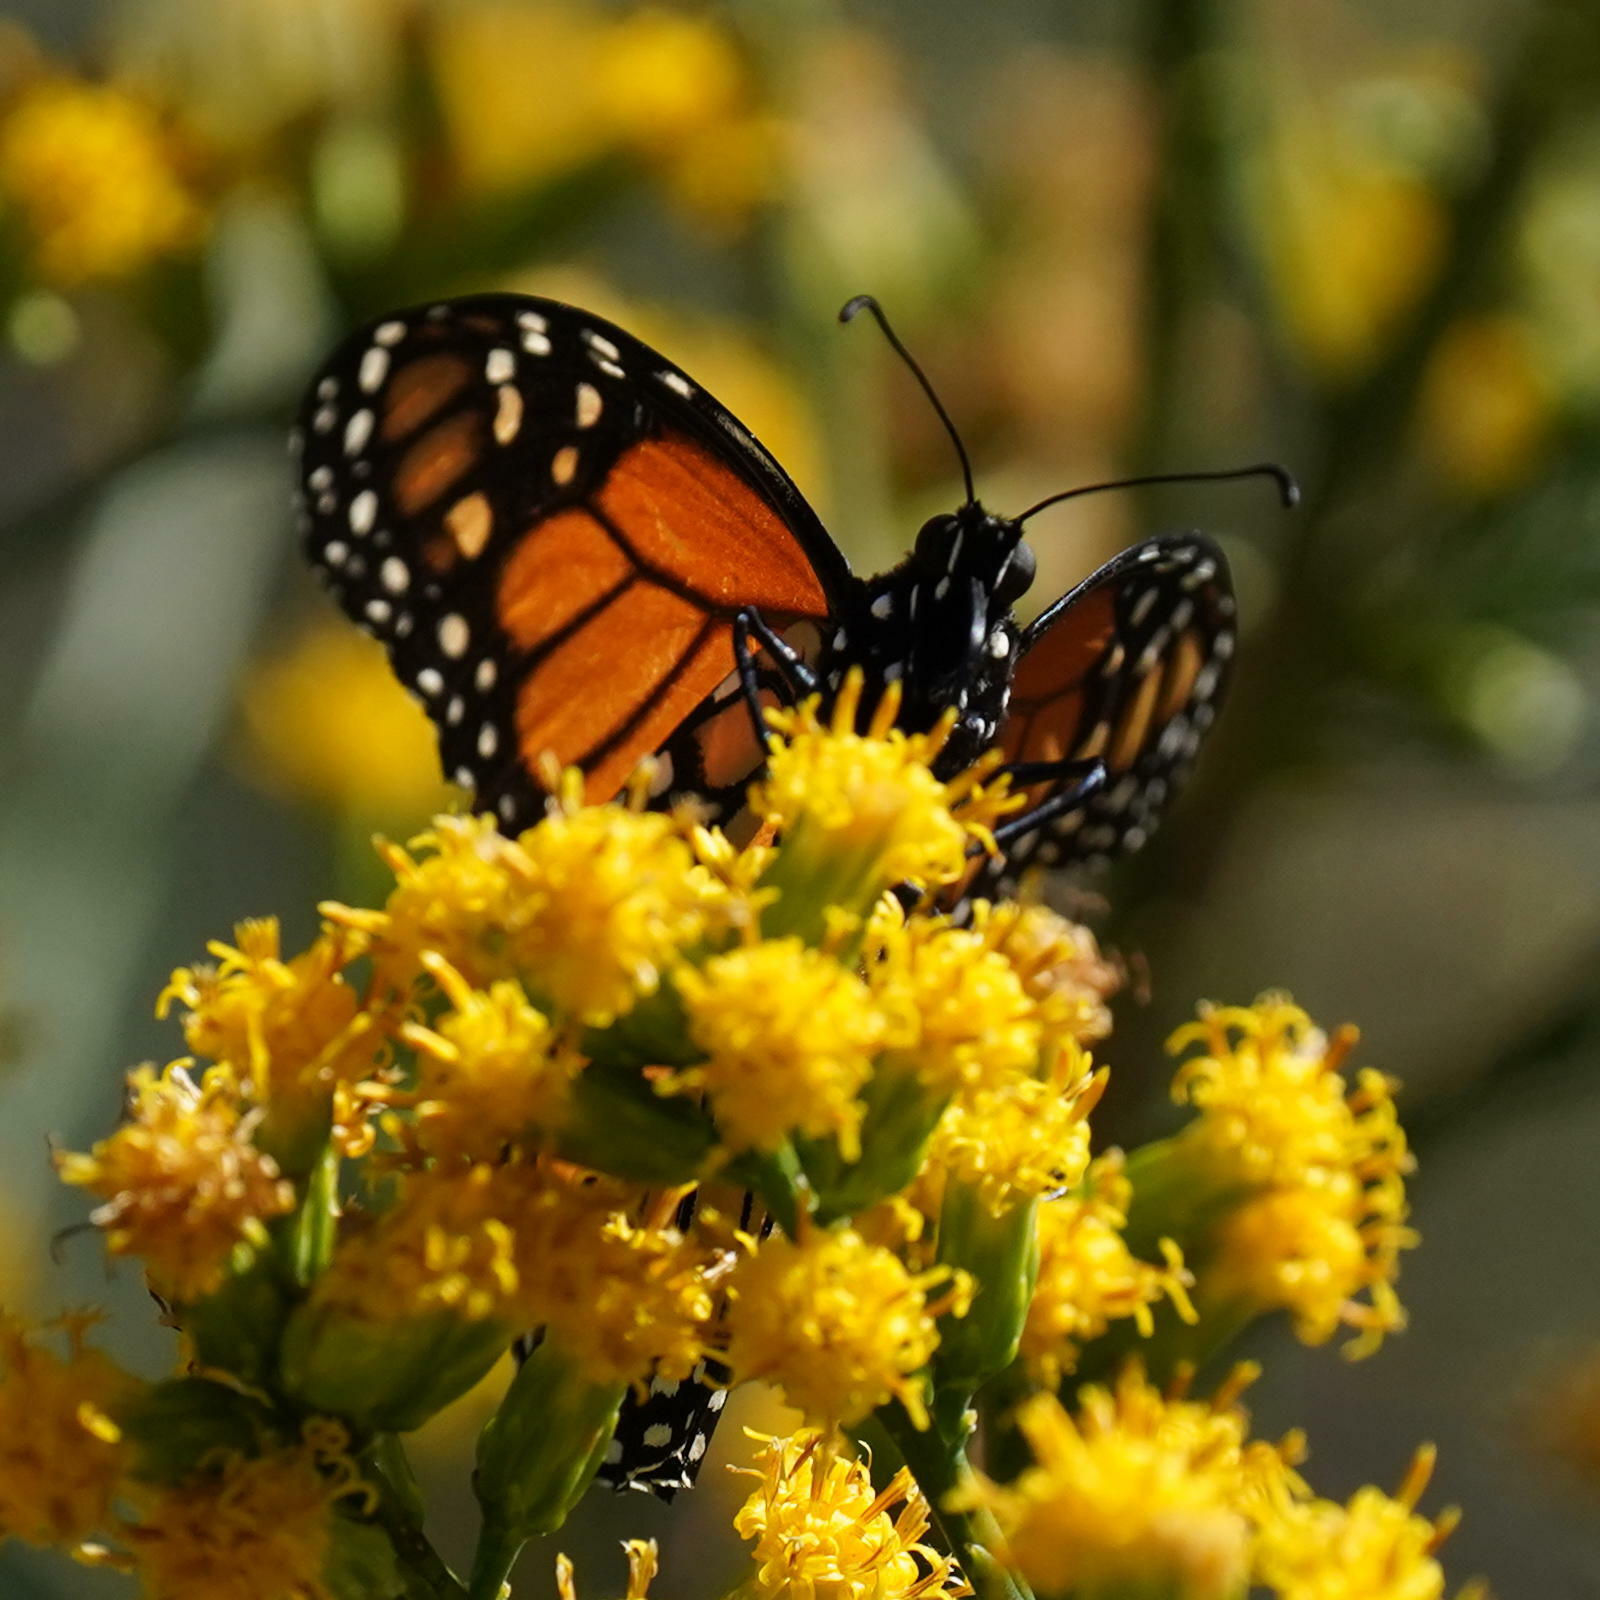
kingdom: Animalia
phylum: Arthropoda
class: Insecta
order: Lepidoptera
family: Nymphalidae
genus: Danaus
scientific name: Danaus plexippus
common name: Monarch
